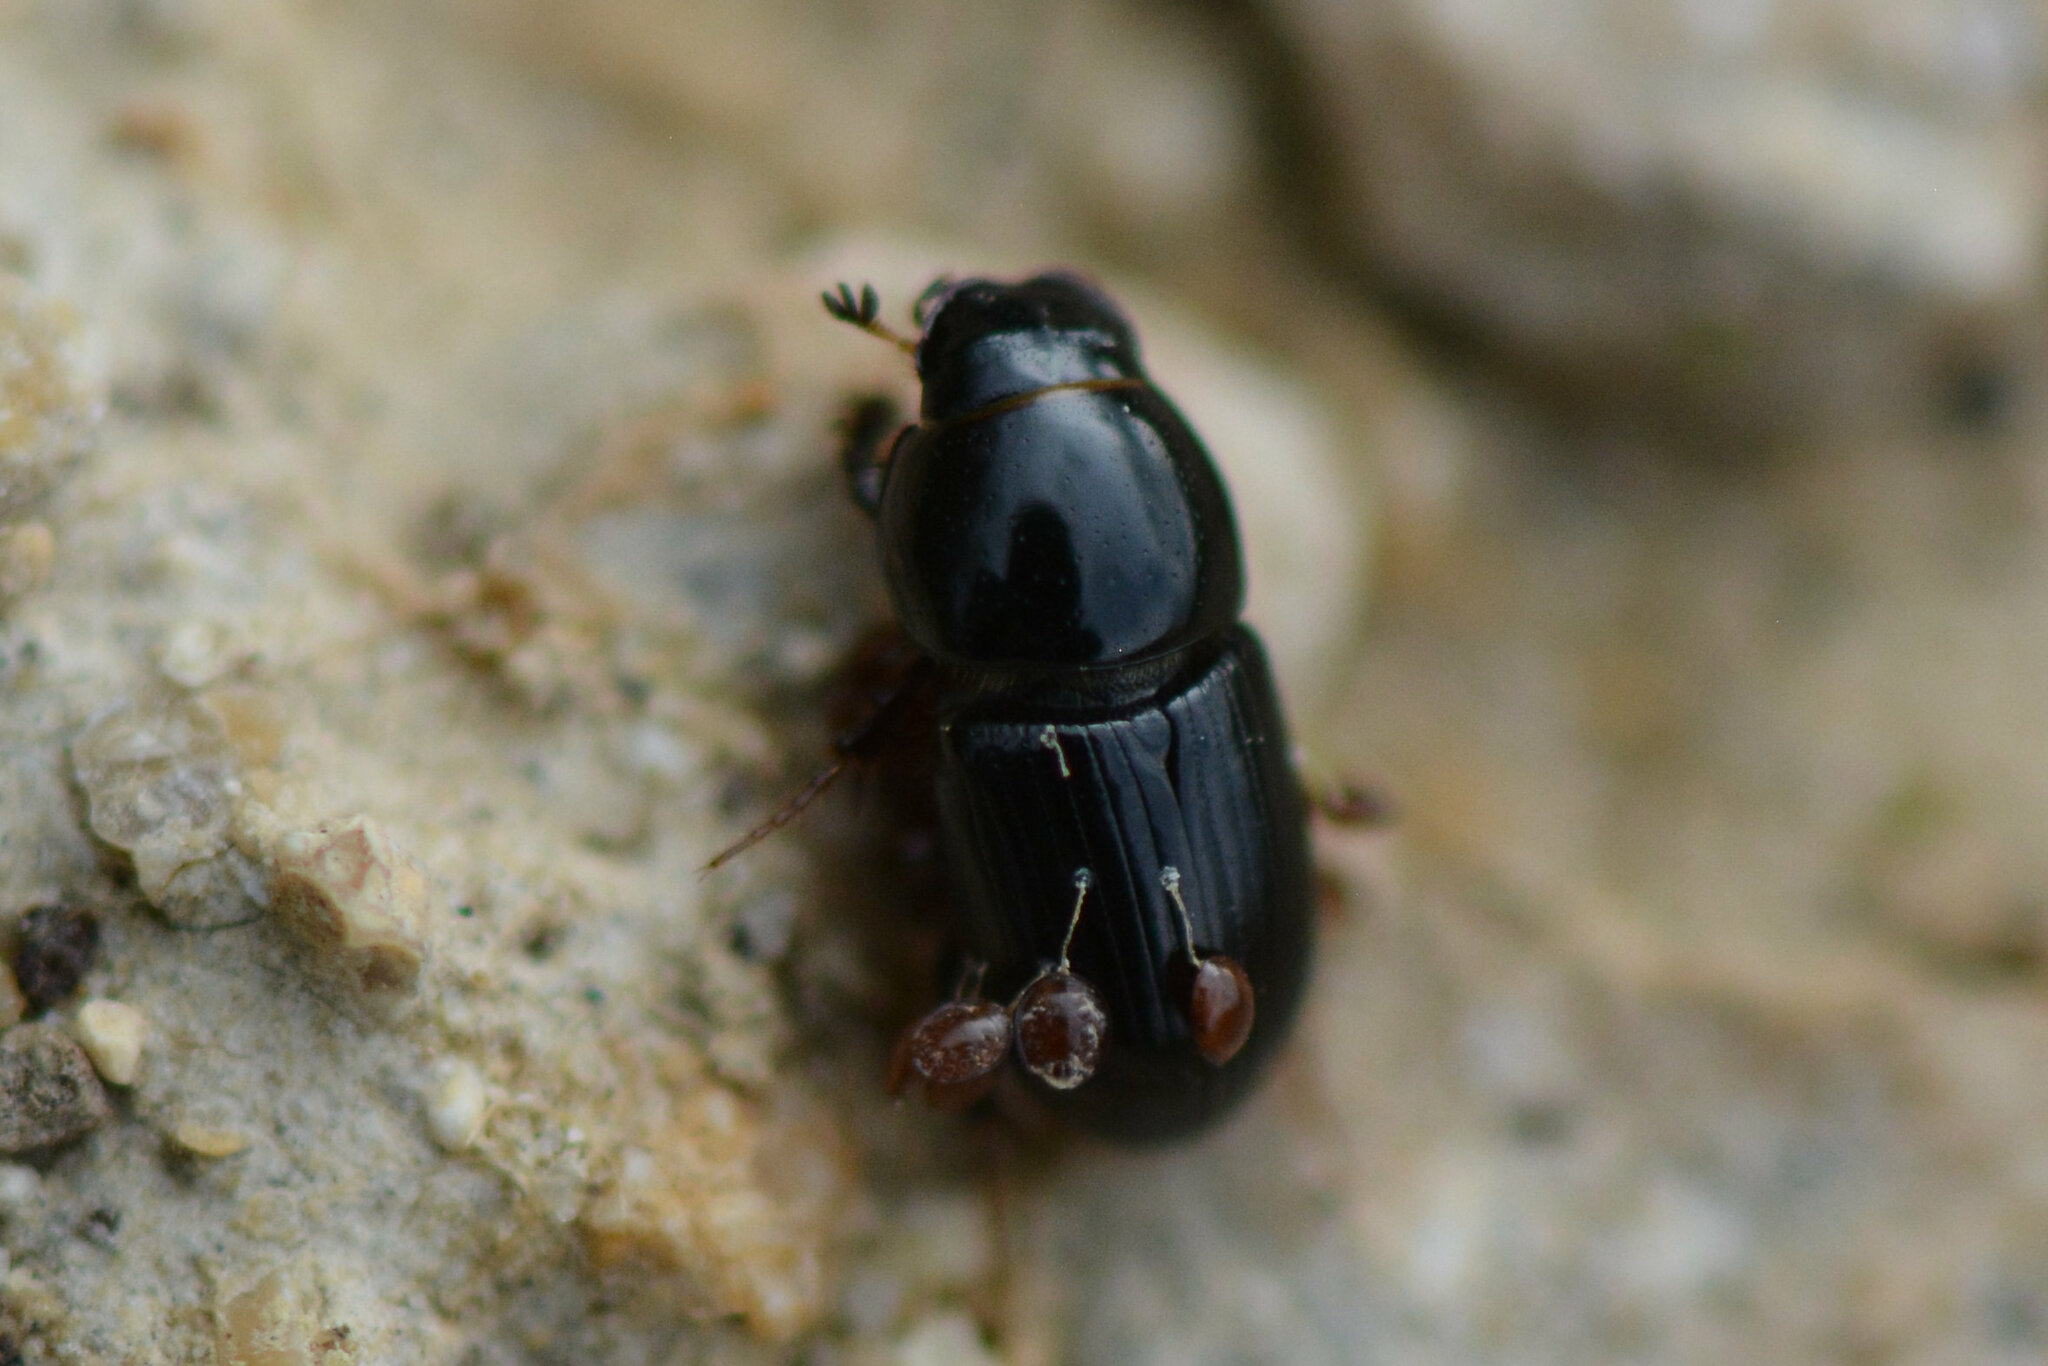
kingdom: Animalia
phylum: Arthropoda
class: Insecta
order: Coleoptera
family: Scarabaeidae
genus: Calamosternus
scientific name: Calamosternus granarius
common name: Granular small dung beetle
